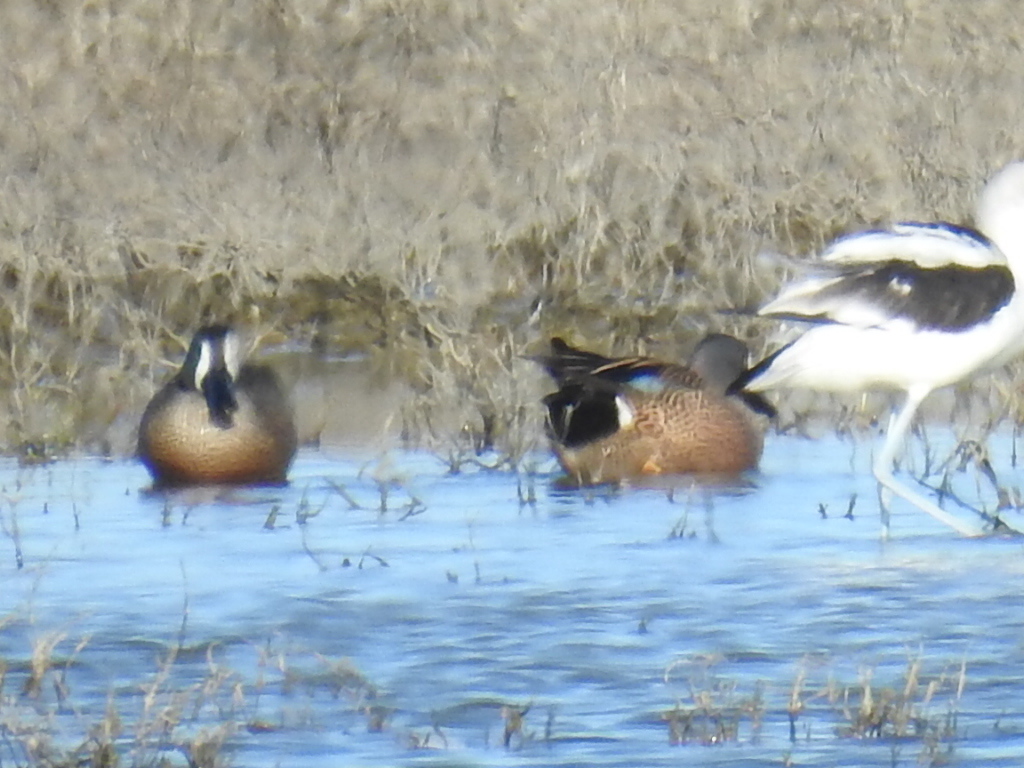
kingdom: Animalia
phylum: Chordata
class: Aves
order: Anseriformes
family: Anatidae
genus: Spatula
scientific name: Spatula discors
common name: Blue-winged teal
